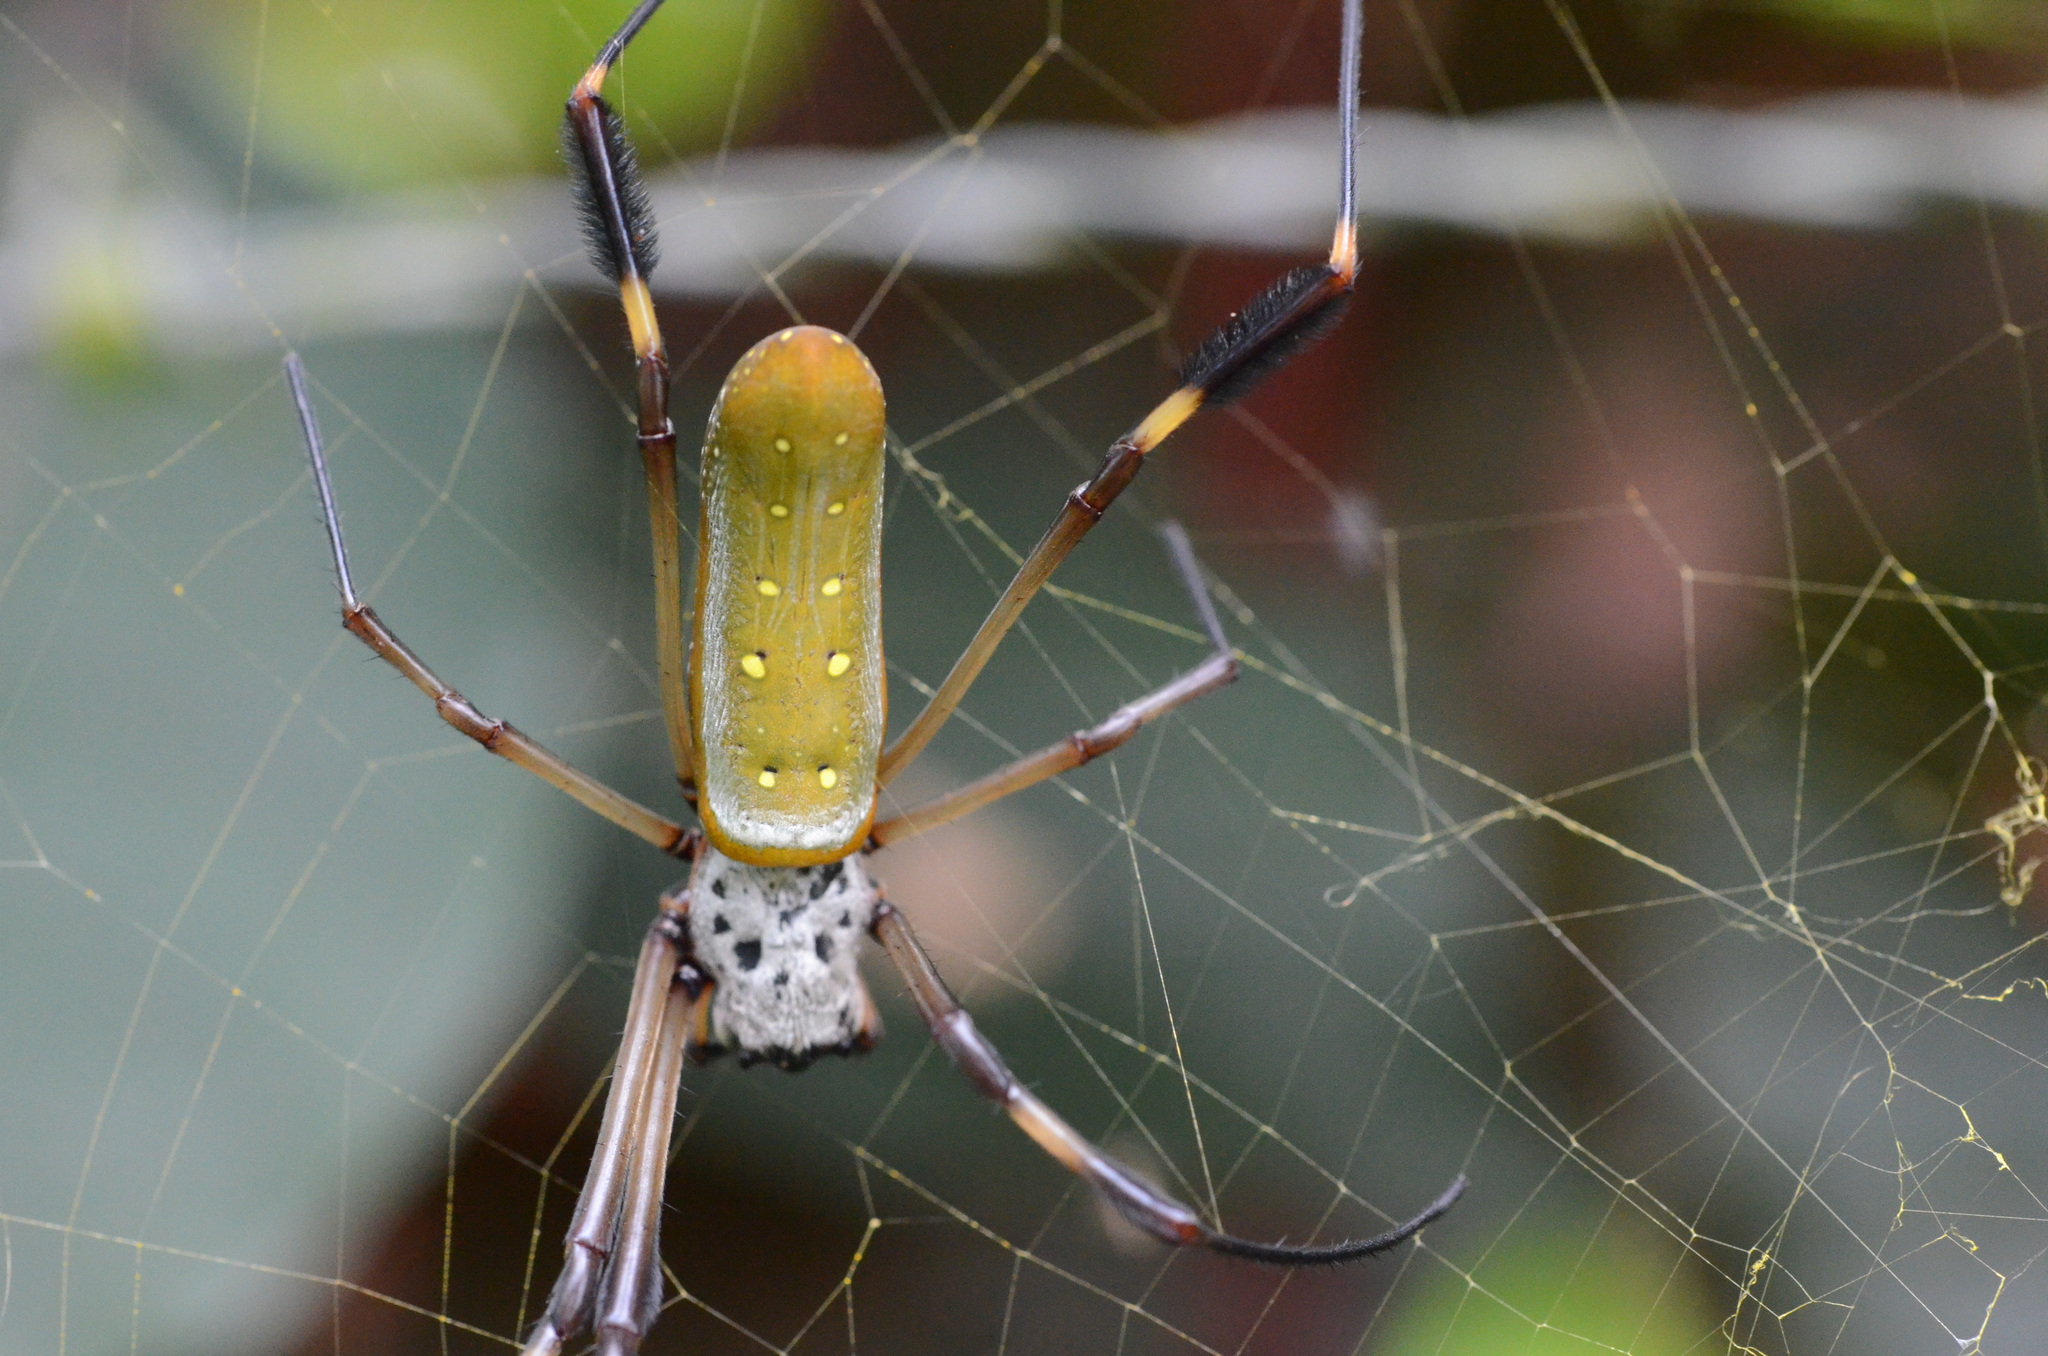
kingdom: Animalia
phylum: Arthropoda
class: Arachnida
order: Araneae
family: Araneidae
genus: Trichonephila
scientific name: Trichonephila clavipes
